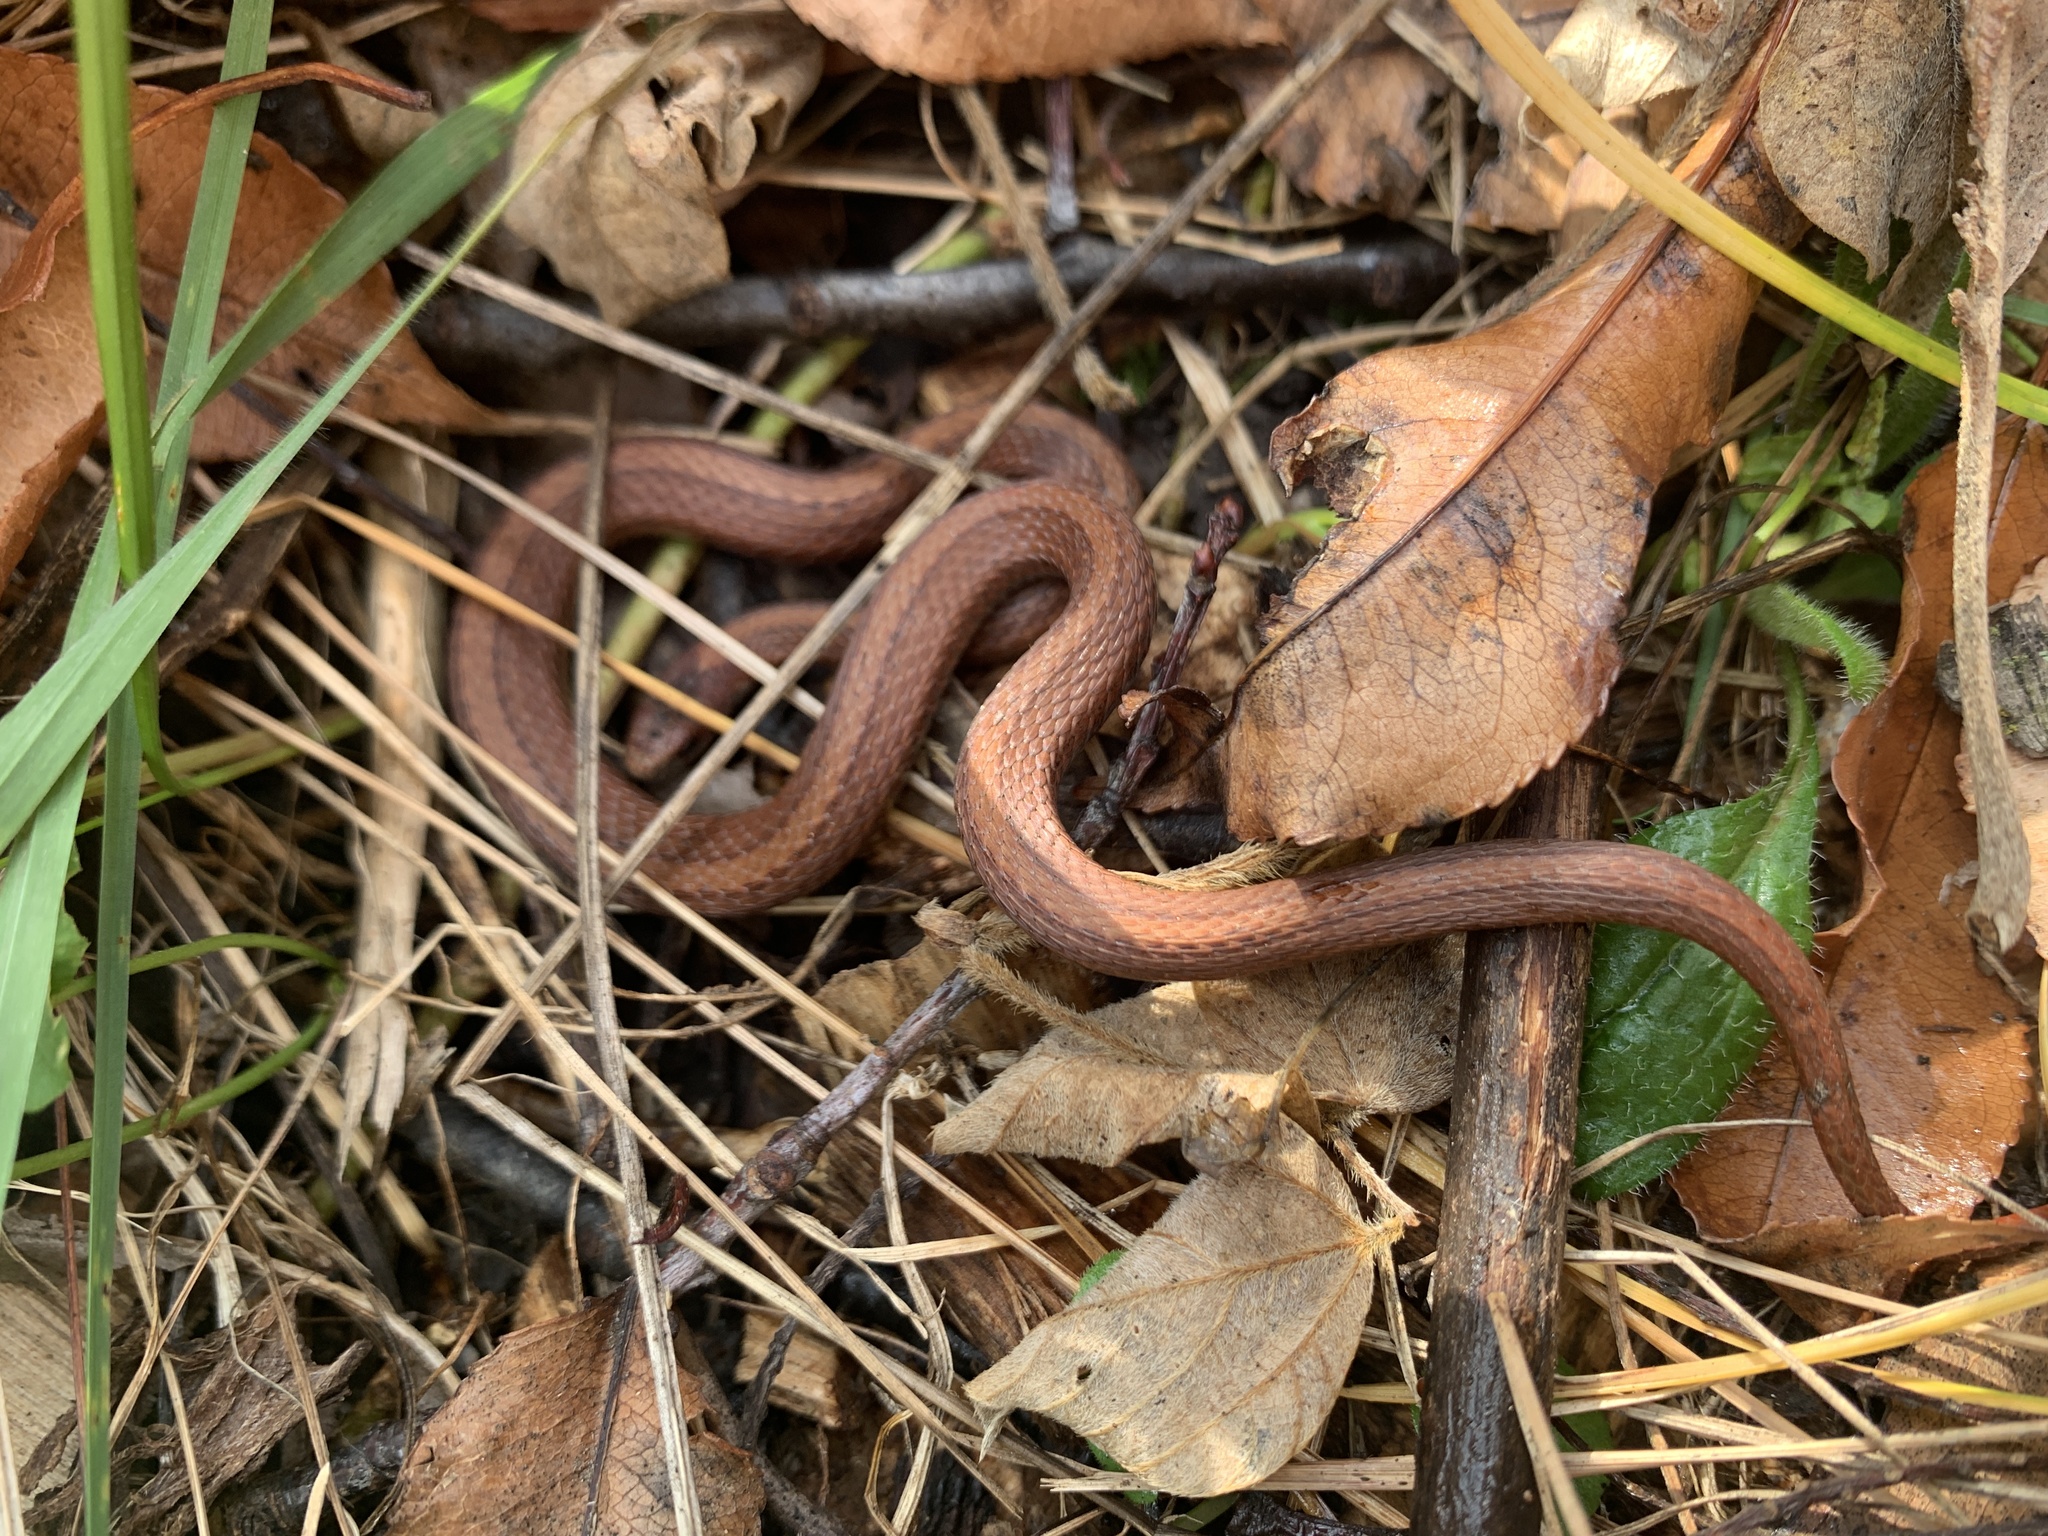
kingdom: Animalia
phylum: Chordata
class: Squamata
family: Colubridae
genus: Storeria
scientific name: Storeria occipitomaculata
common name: Redbelly snake
